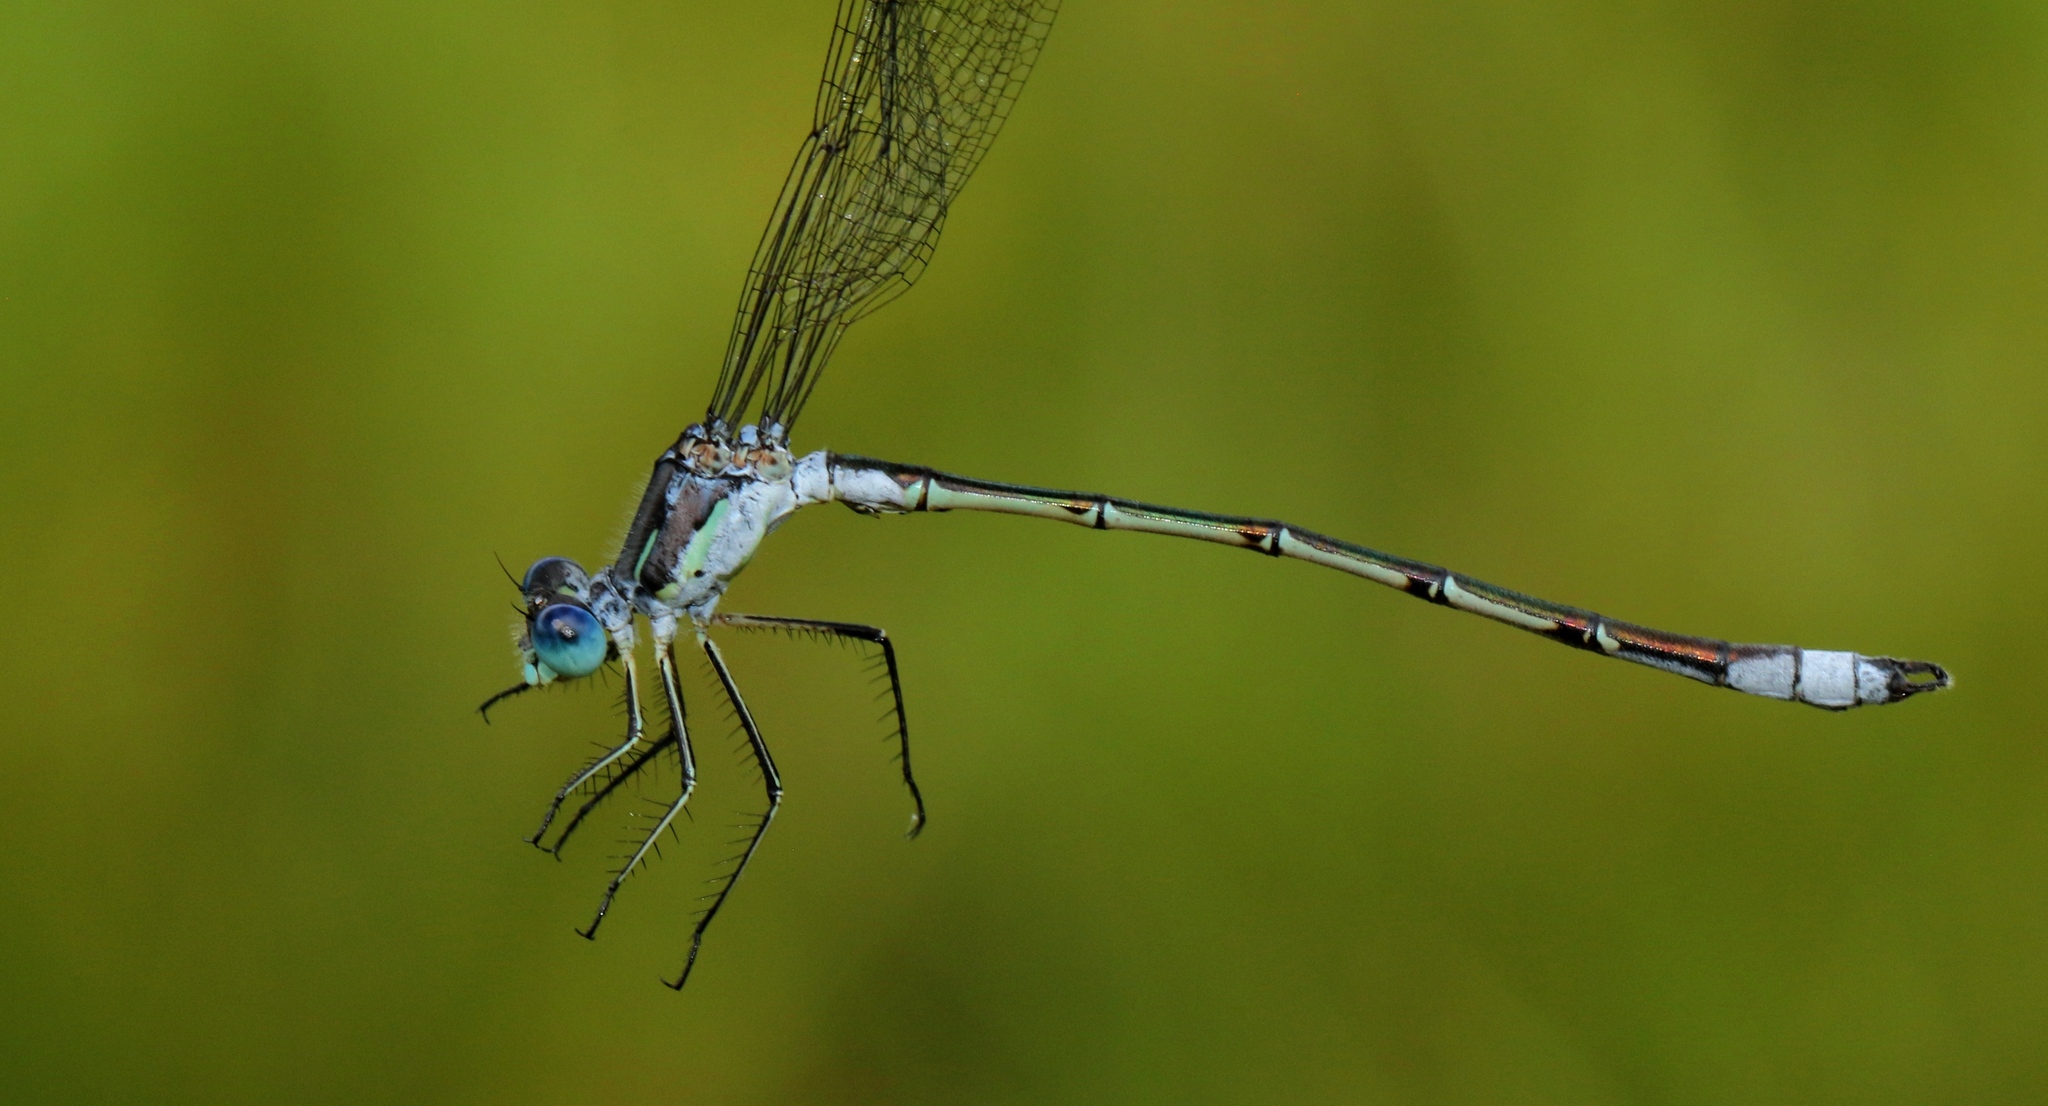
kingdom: Animalia
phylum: Arthropoda
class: Insecta
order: Odonata
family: Lestidae
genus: Lestes
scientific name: Lestes unguiculatus
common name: Lyre-tipped spreadwing
